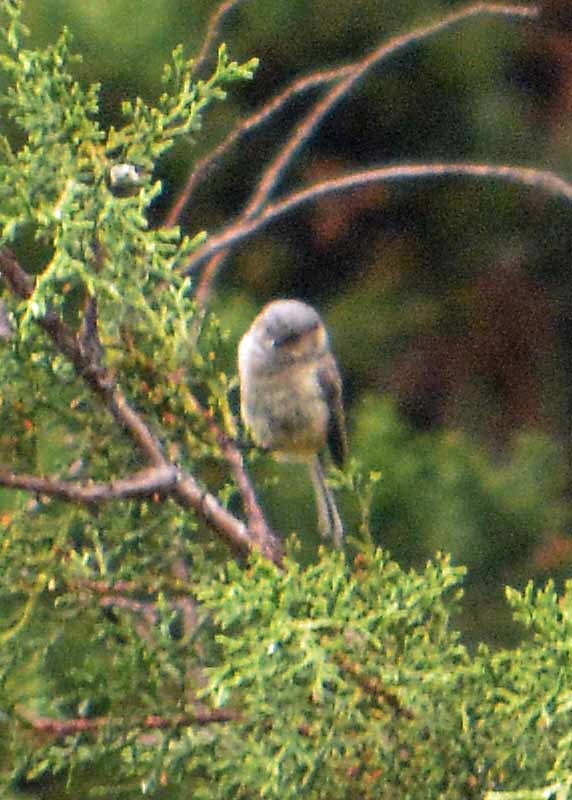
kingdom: Animalia
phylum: Chordata
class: Aves
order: Passeriformes
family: Aegithalidae
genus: Psaltriparus
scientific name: Psaltriparus minimus
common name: American bushtit
